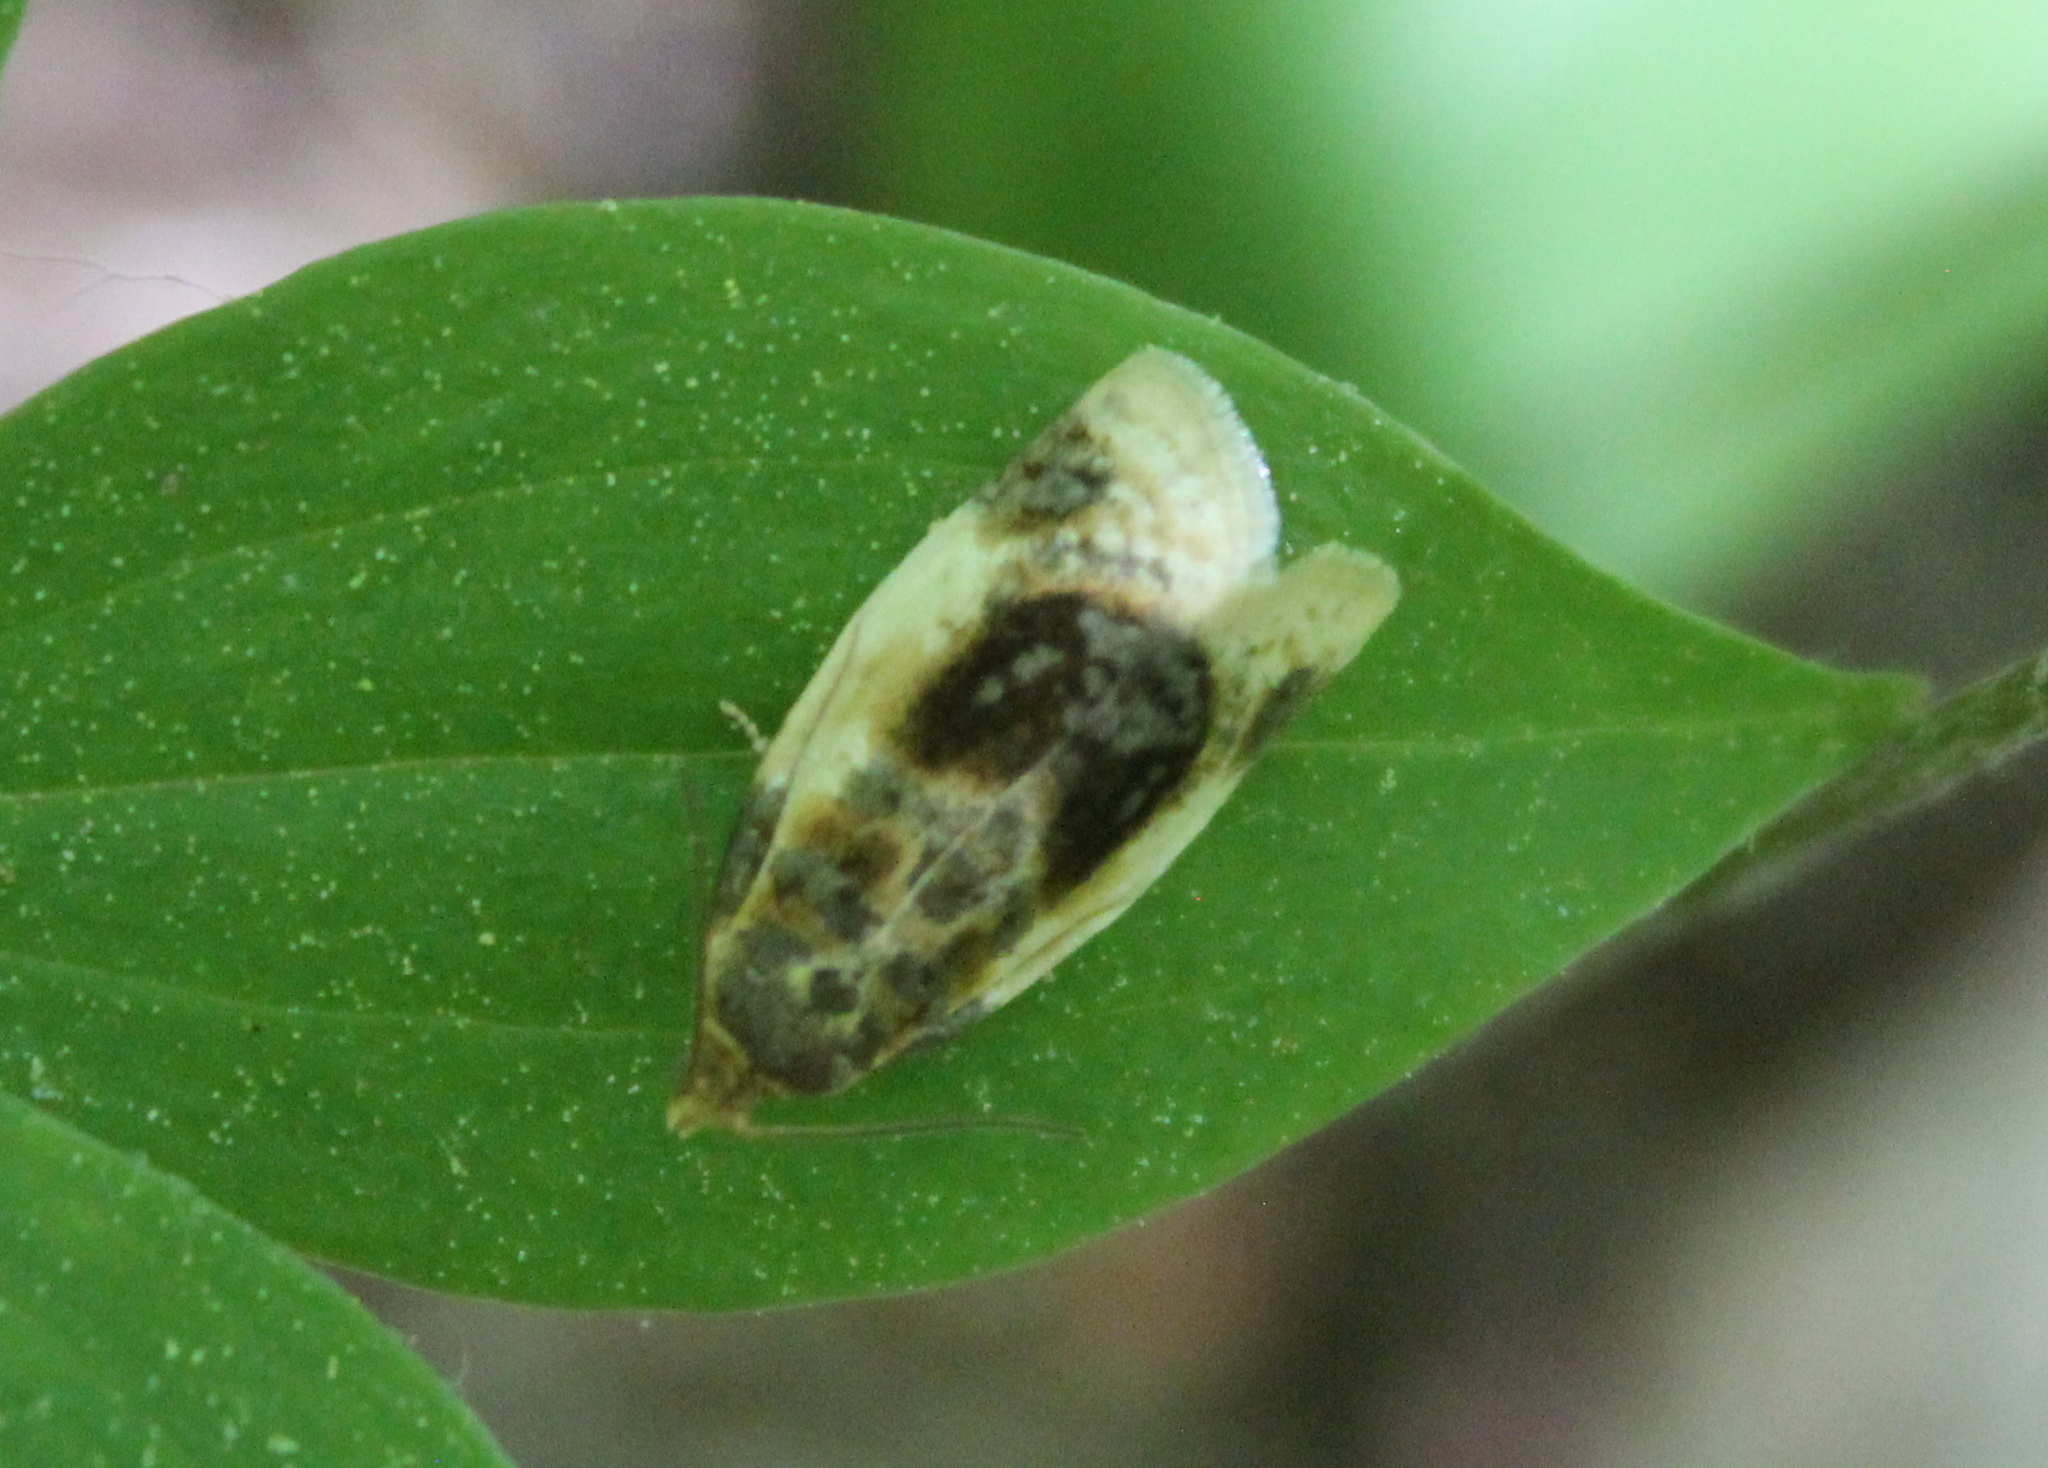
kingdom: Animalia
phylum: Arthropoda
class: Insecta
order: Lepidoptera
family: Tortricidae
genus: Clepsis
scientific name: Clepsis melaleucanus
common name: American apple tortrix
